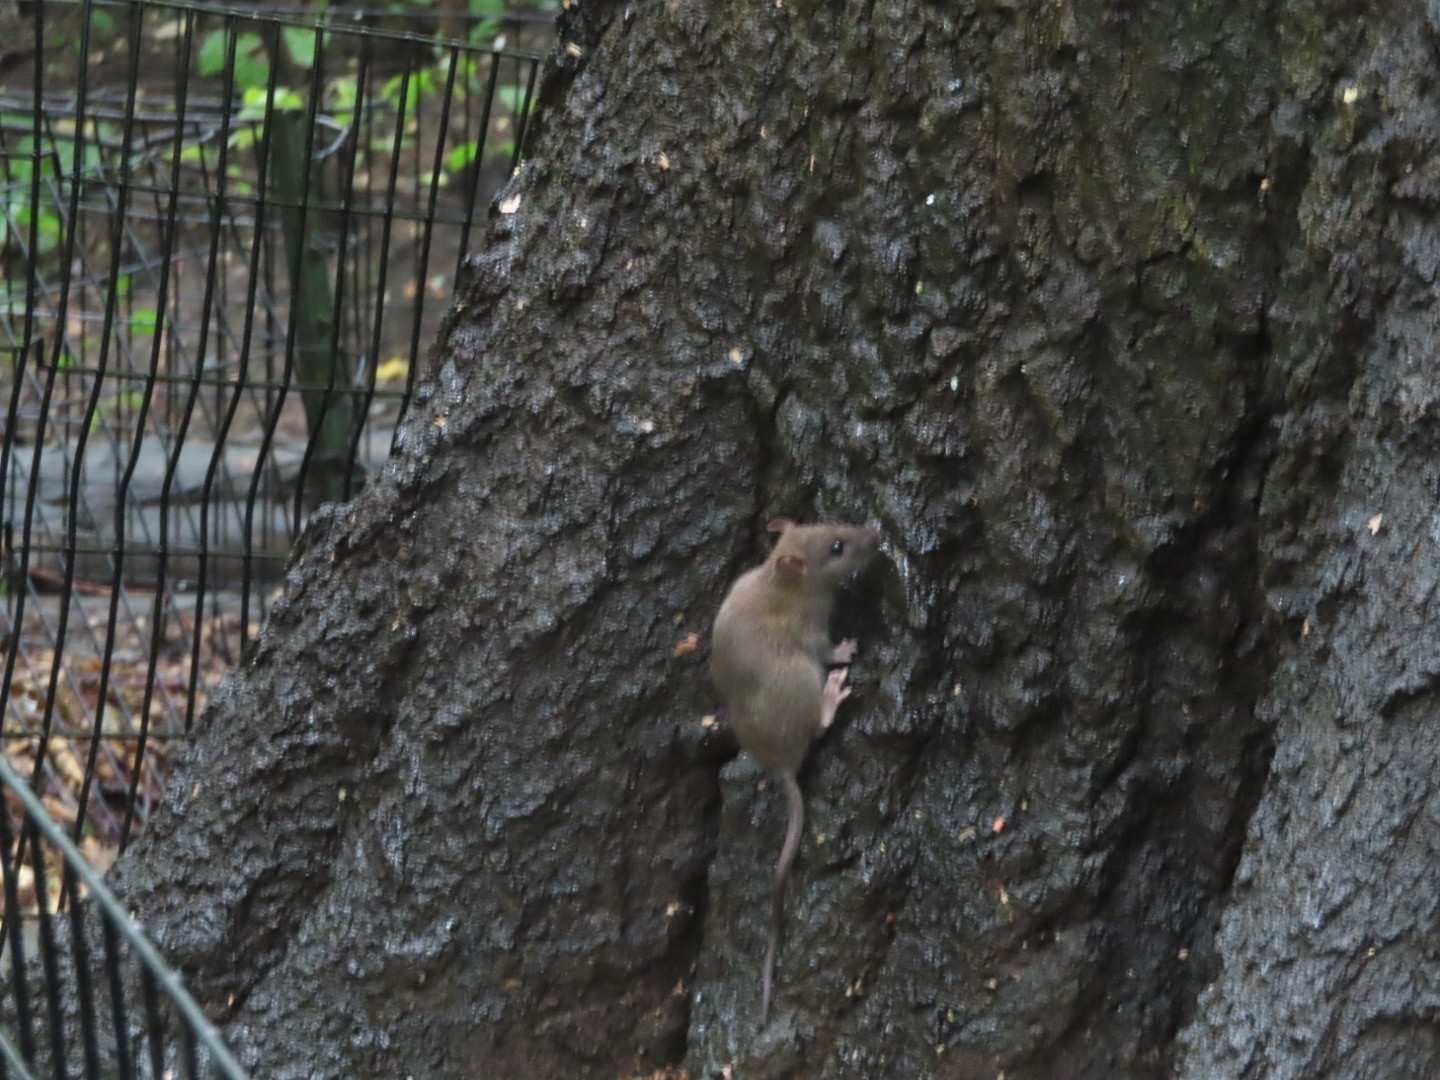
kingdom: Animalia
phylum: Chordata
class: Mammalia
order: Rodentia
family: Muridae
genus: Rattus
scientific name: Rattus norvegicus
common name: Brown rat
